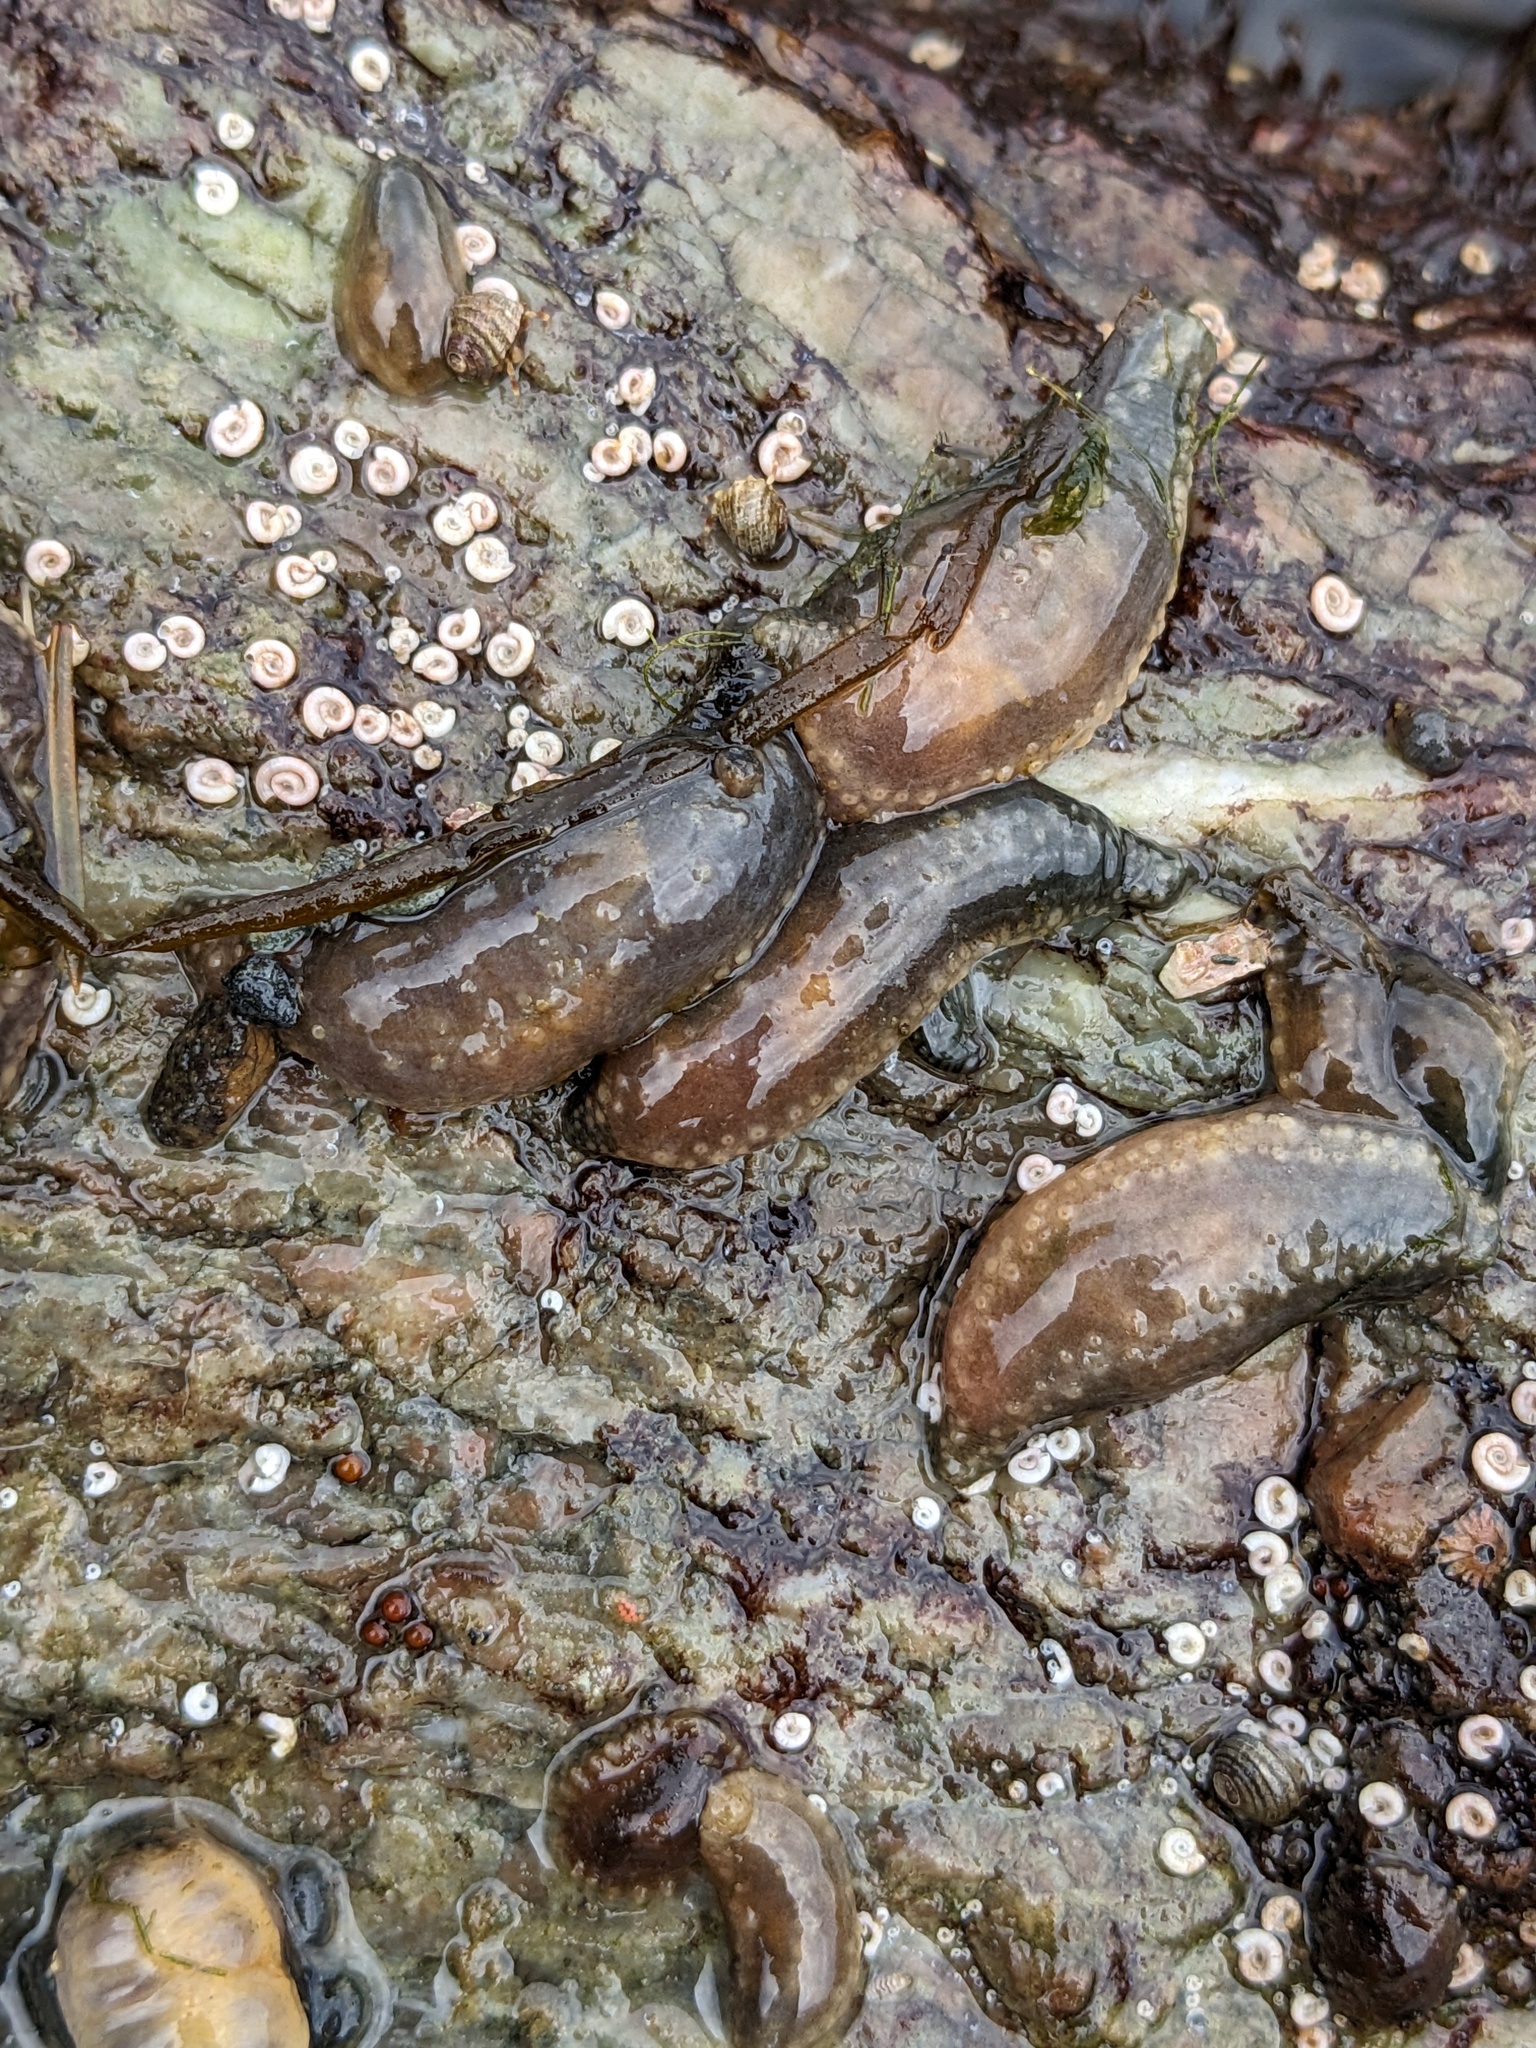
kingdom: Animalia
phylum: Echinodermata
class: Holothuroidea
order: Dendrochirotida
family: Cucumariidae
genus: Cucumaria
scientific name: Cucumaria vegae
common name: Vega sea cucumber
